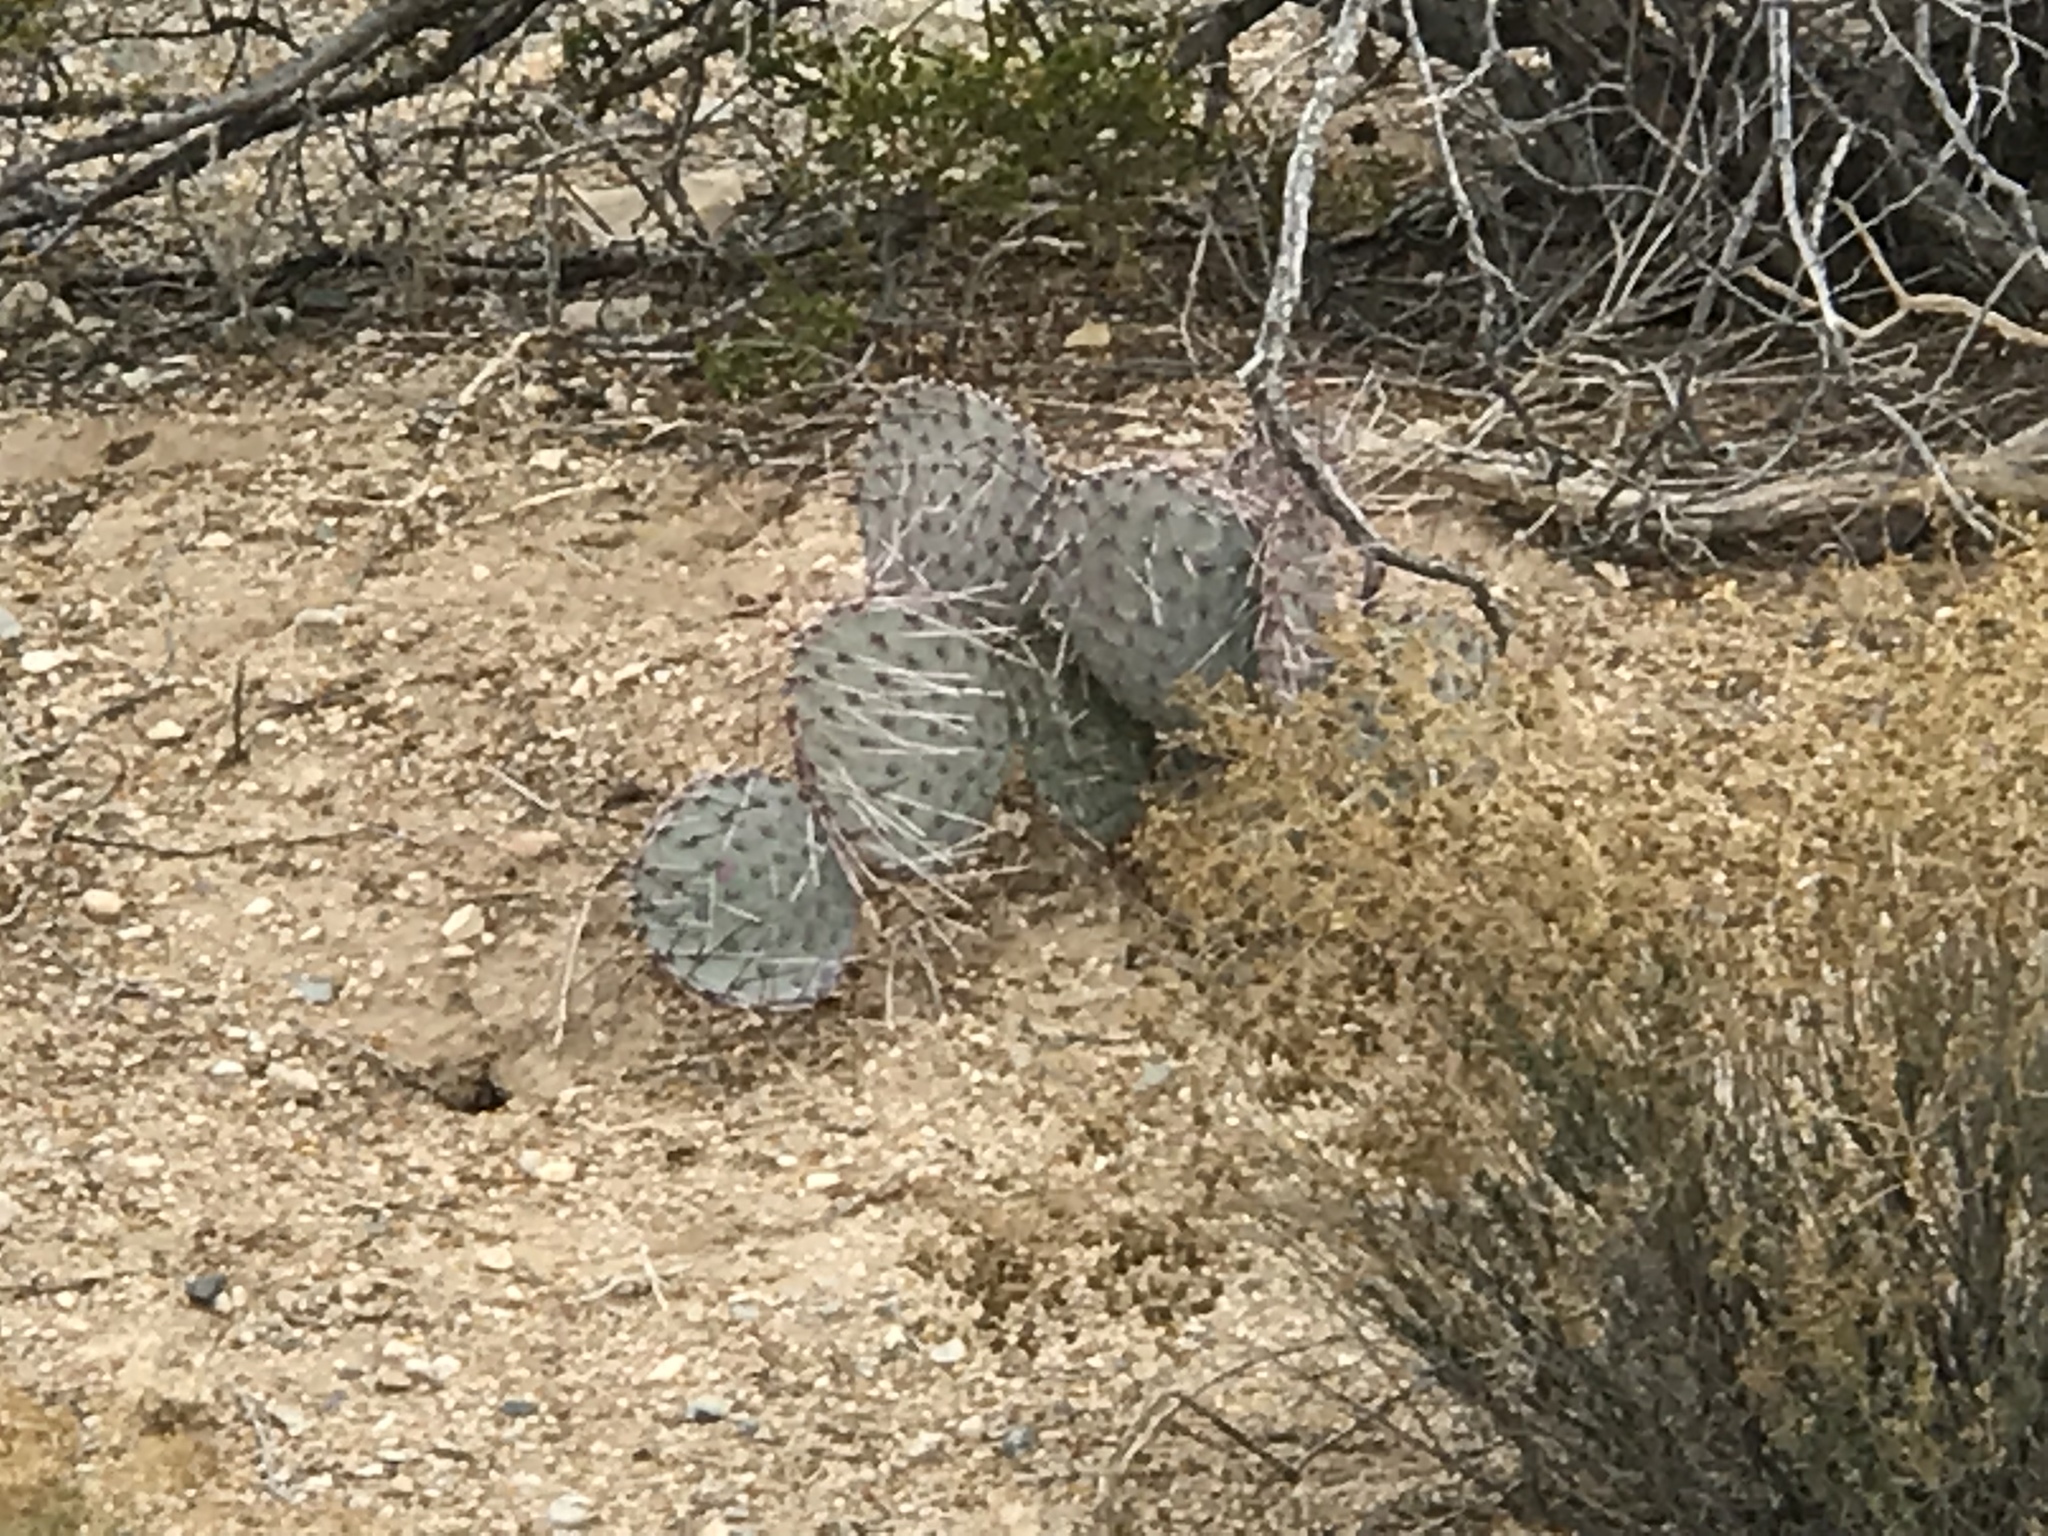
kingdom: Plantae
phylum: Tracheophyta
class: Magnoliopsida
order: Caryophyllales
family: Cactaceae
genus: Opuntia
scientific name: Opuntia macrocentra
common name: Purple prickly-pear
